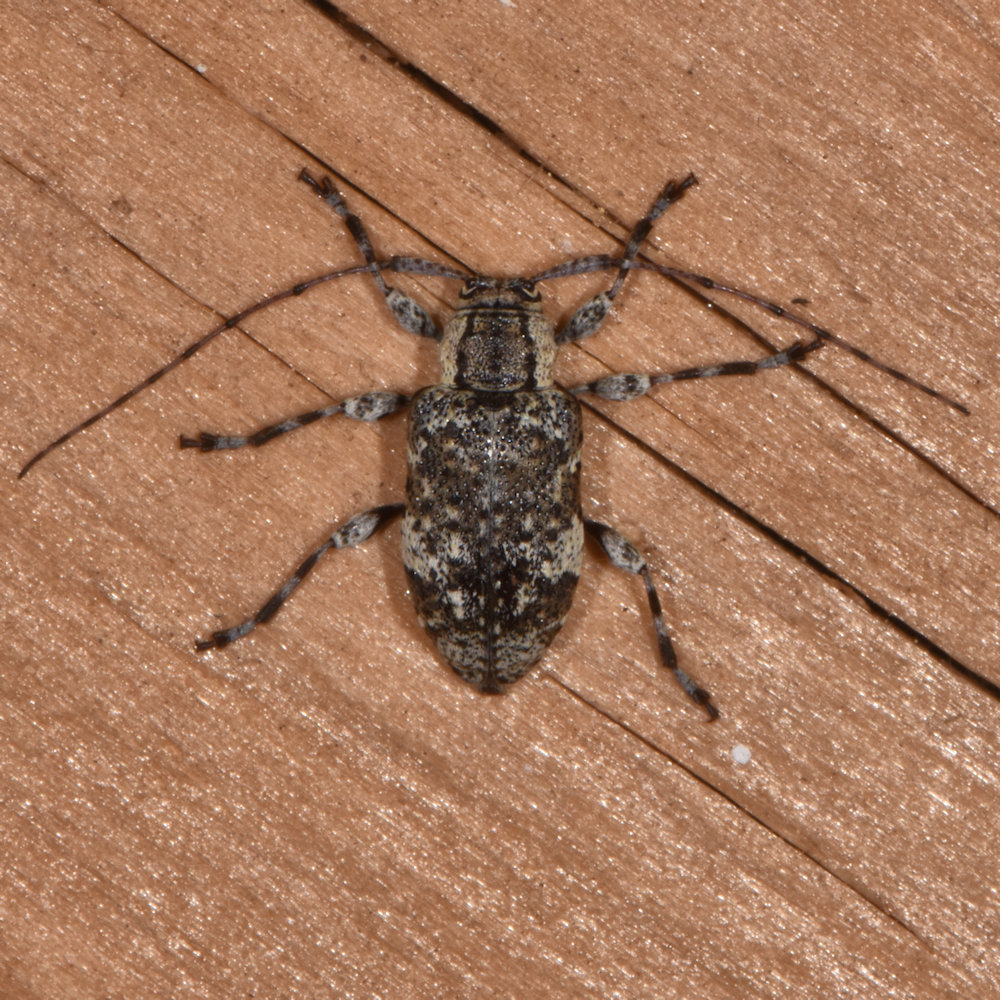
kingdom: Animalia
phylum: Arthropoda
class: Insecta
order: Coleoptera
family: Cerambycidae
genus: Astylopsis
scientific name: Astylopsis macula
